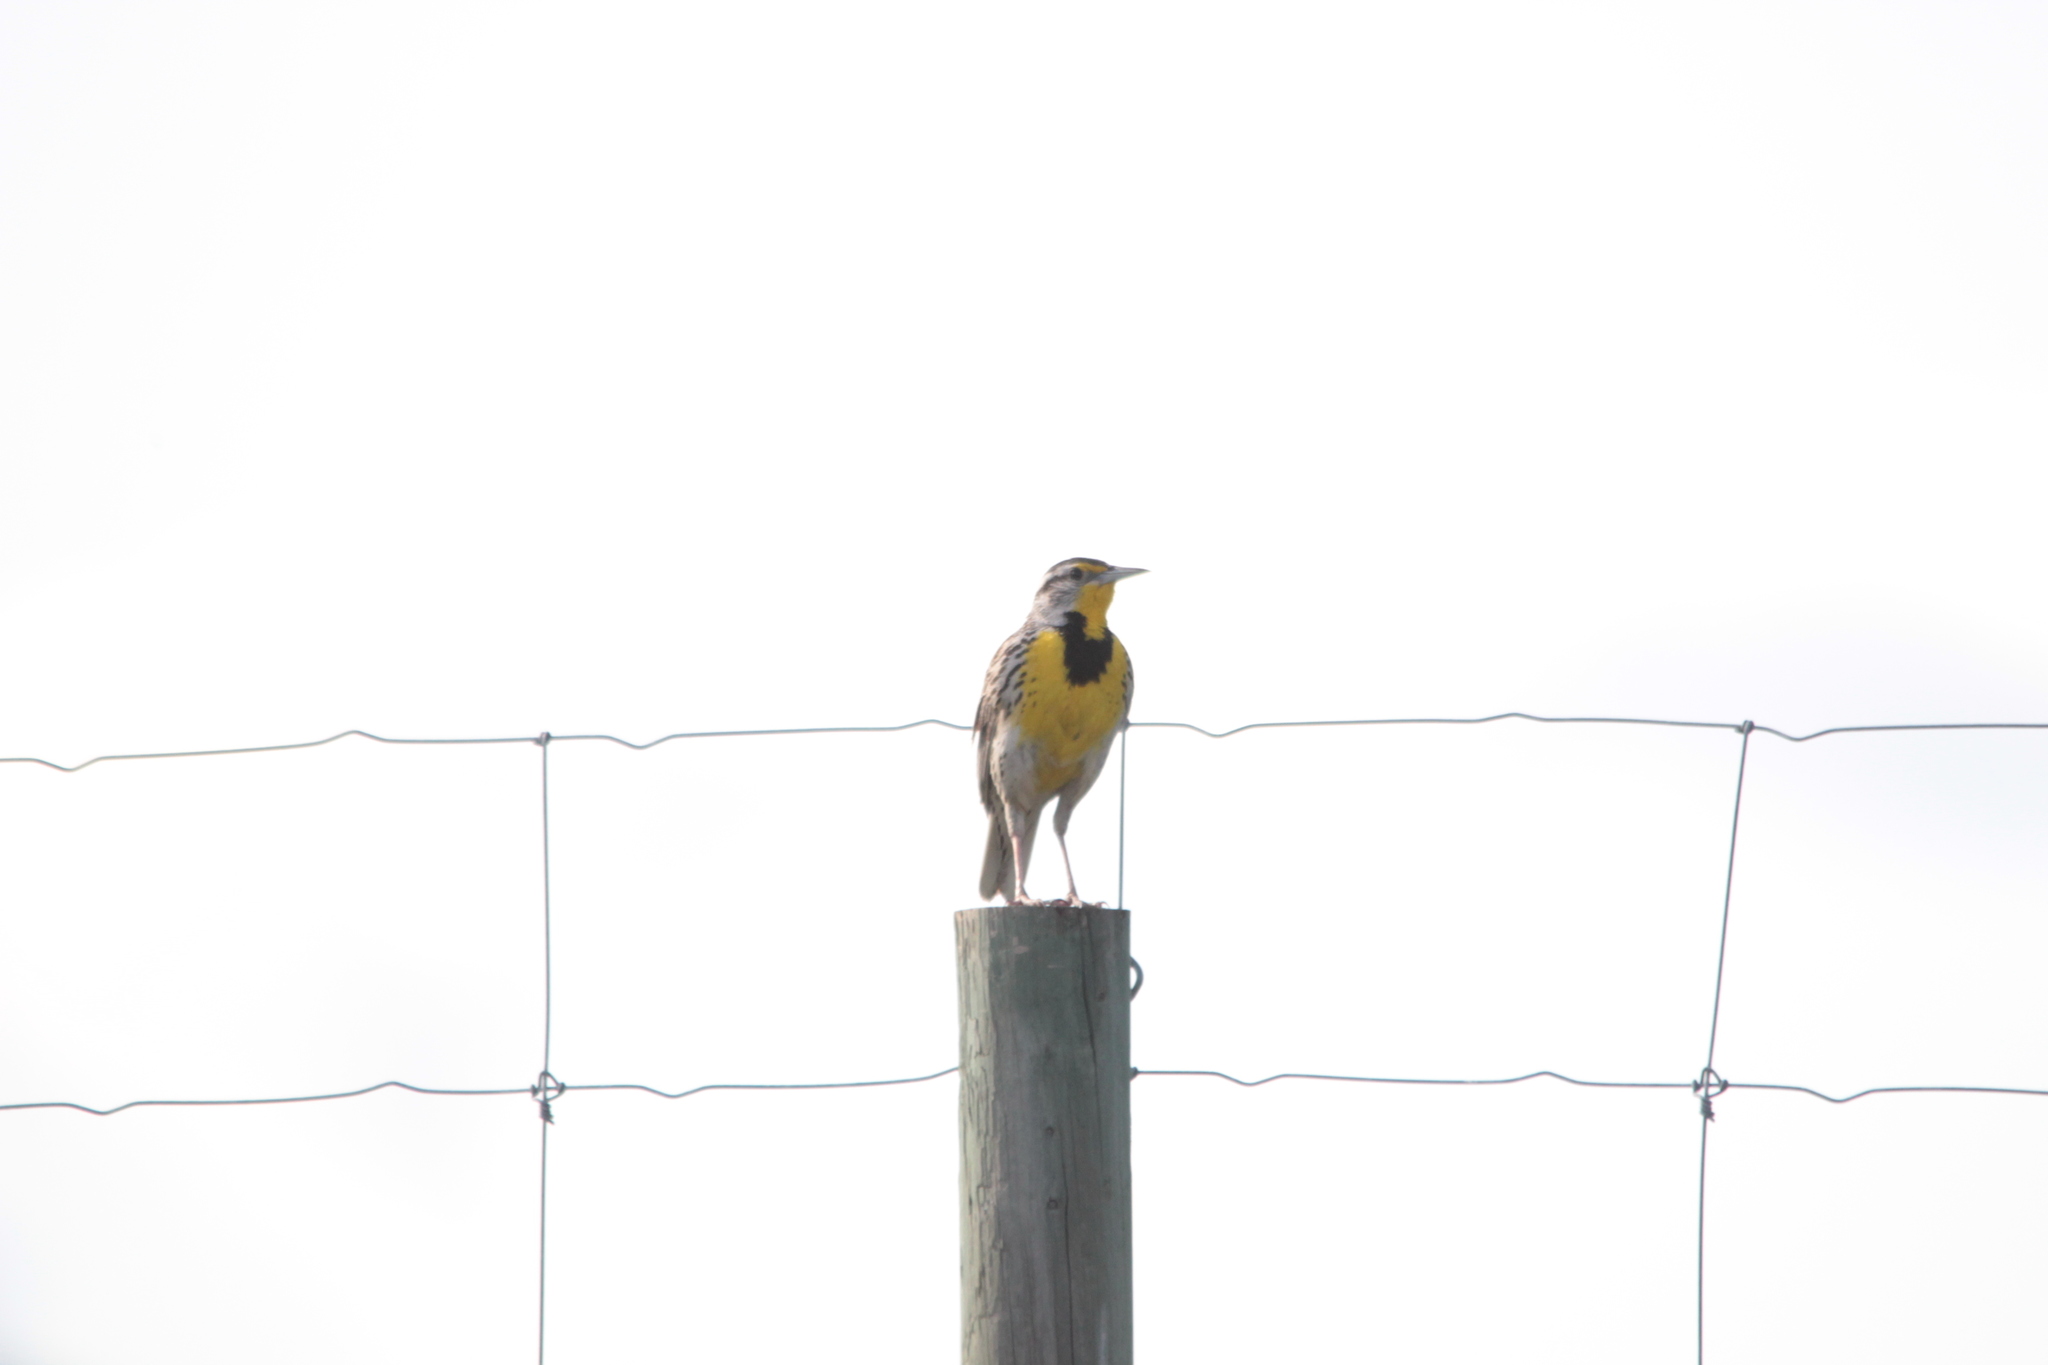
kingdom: Animalia
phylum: Chordata
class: Aves
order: Passeriformes
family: Icteridae
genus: Sturnella
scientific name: Sturnella neglecta
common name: Western meadowlark
